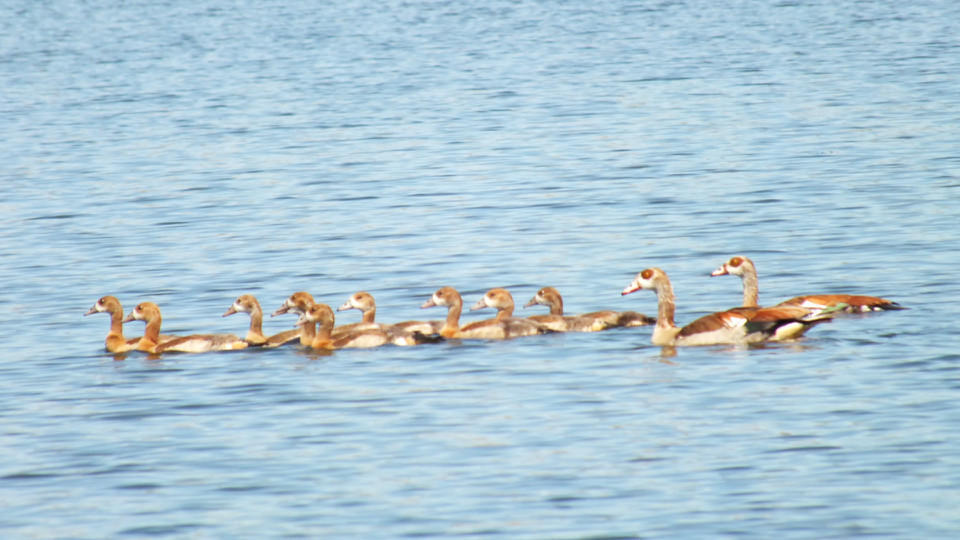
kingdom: Animalia
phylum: Chordata
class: Aves
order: Anseriformes
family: Anatidae
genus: Alopochen
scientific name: Alopochen aegyptiaca
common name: Egyptian goose
